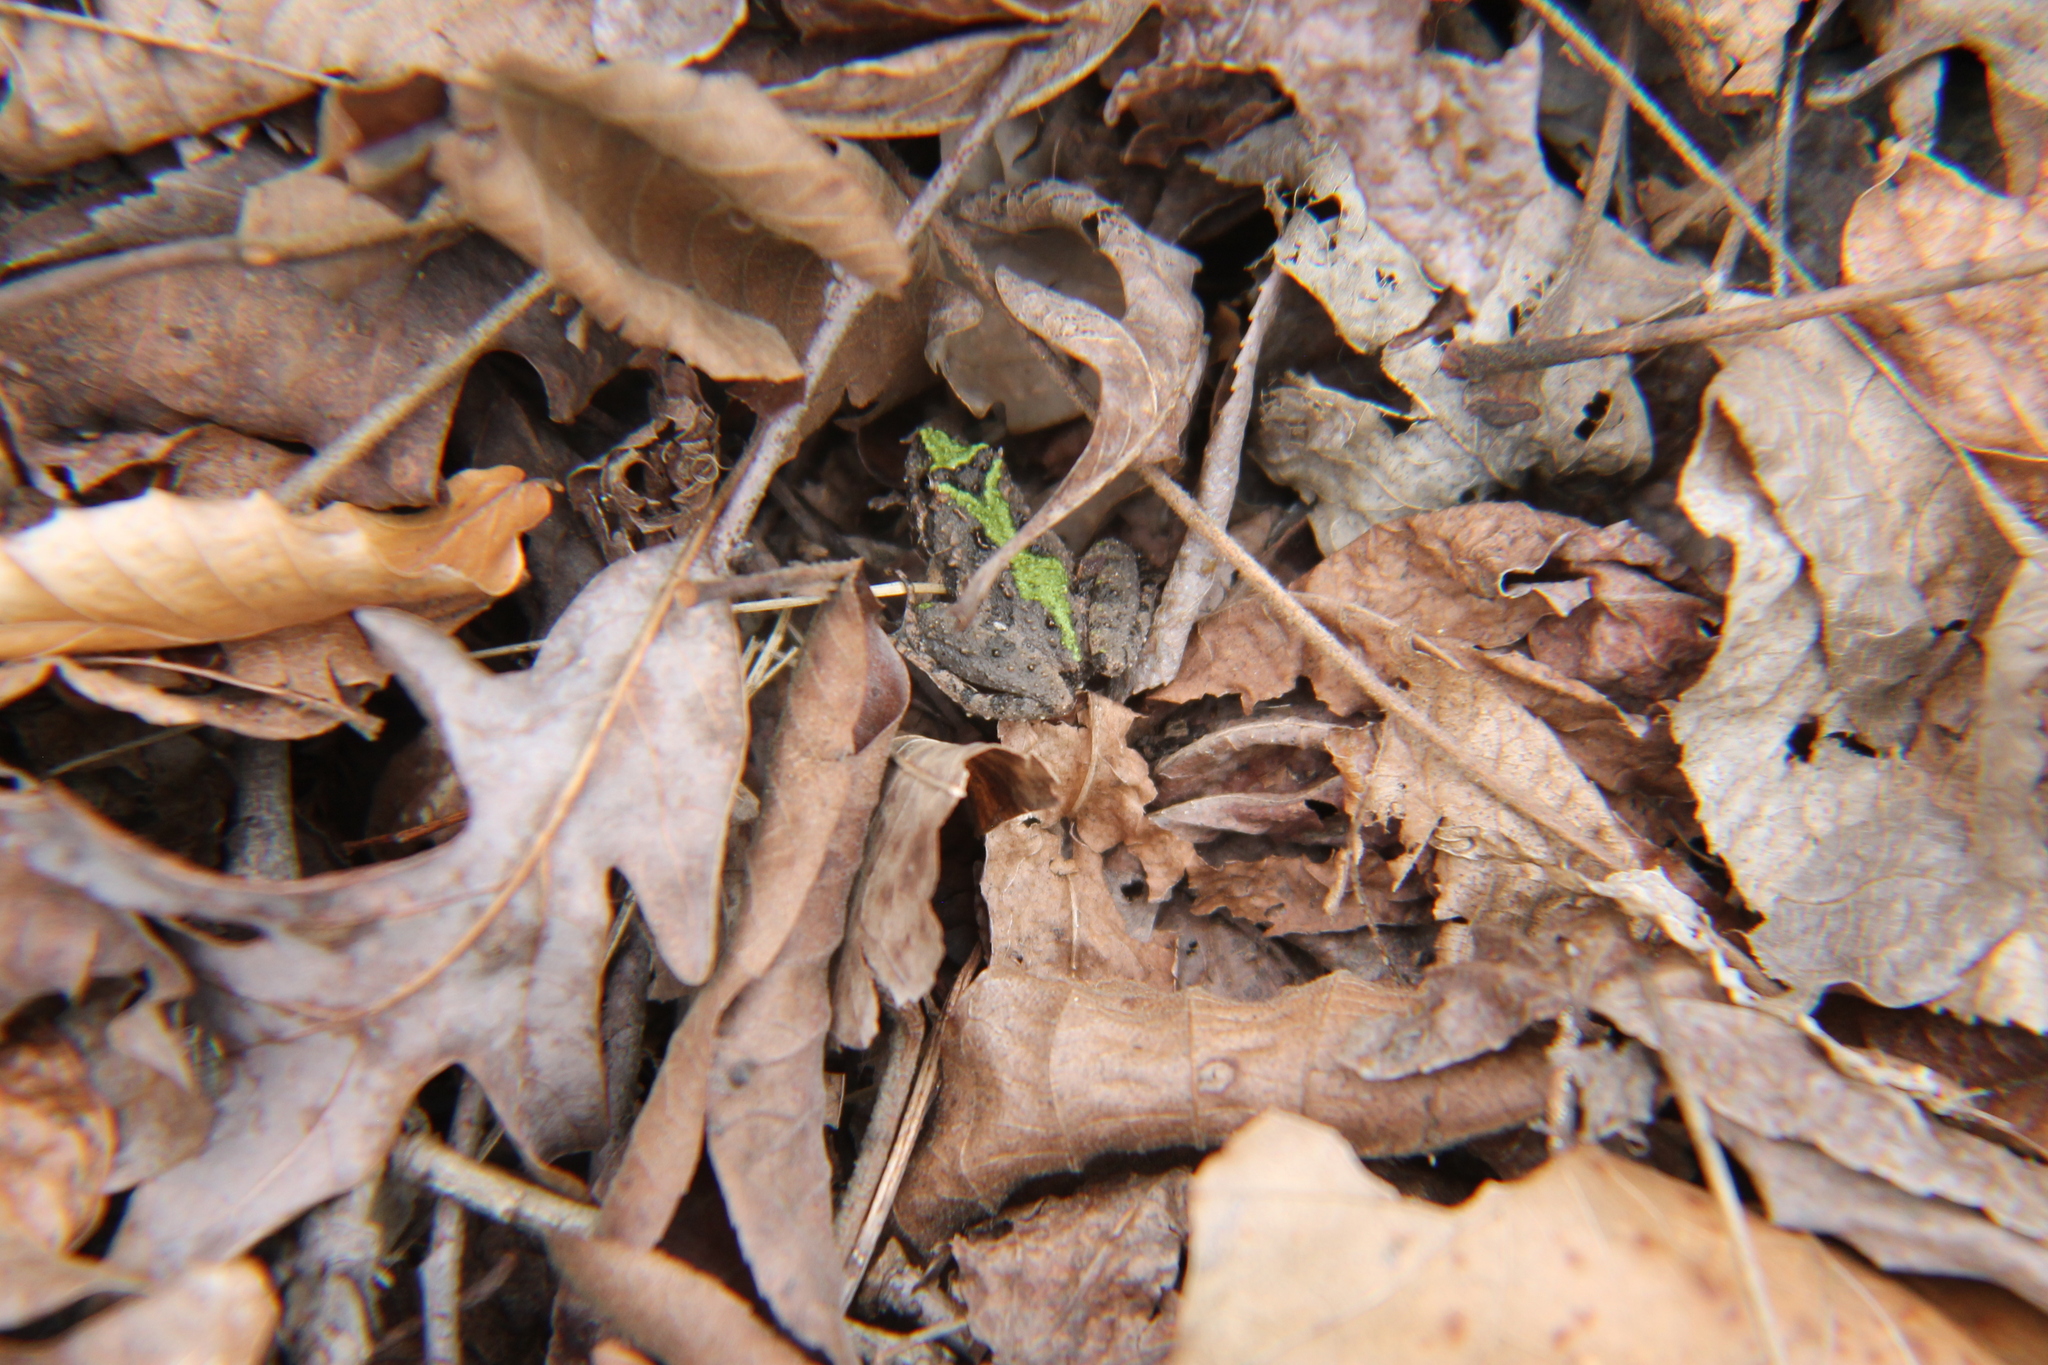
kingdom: Animalia
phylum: Chordata
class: Amphibia
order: Anura
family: Hylidae
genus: Acris
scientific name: Acris crepitans
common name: Northern cricket frog
